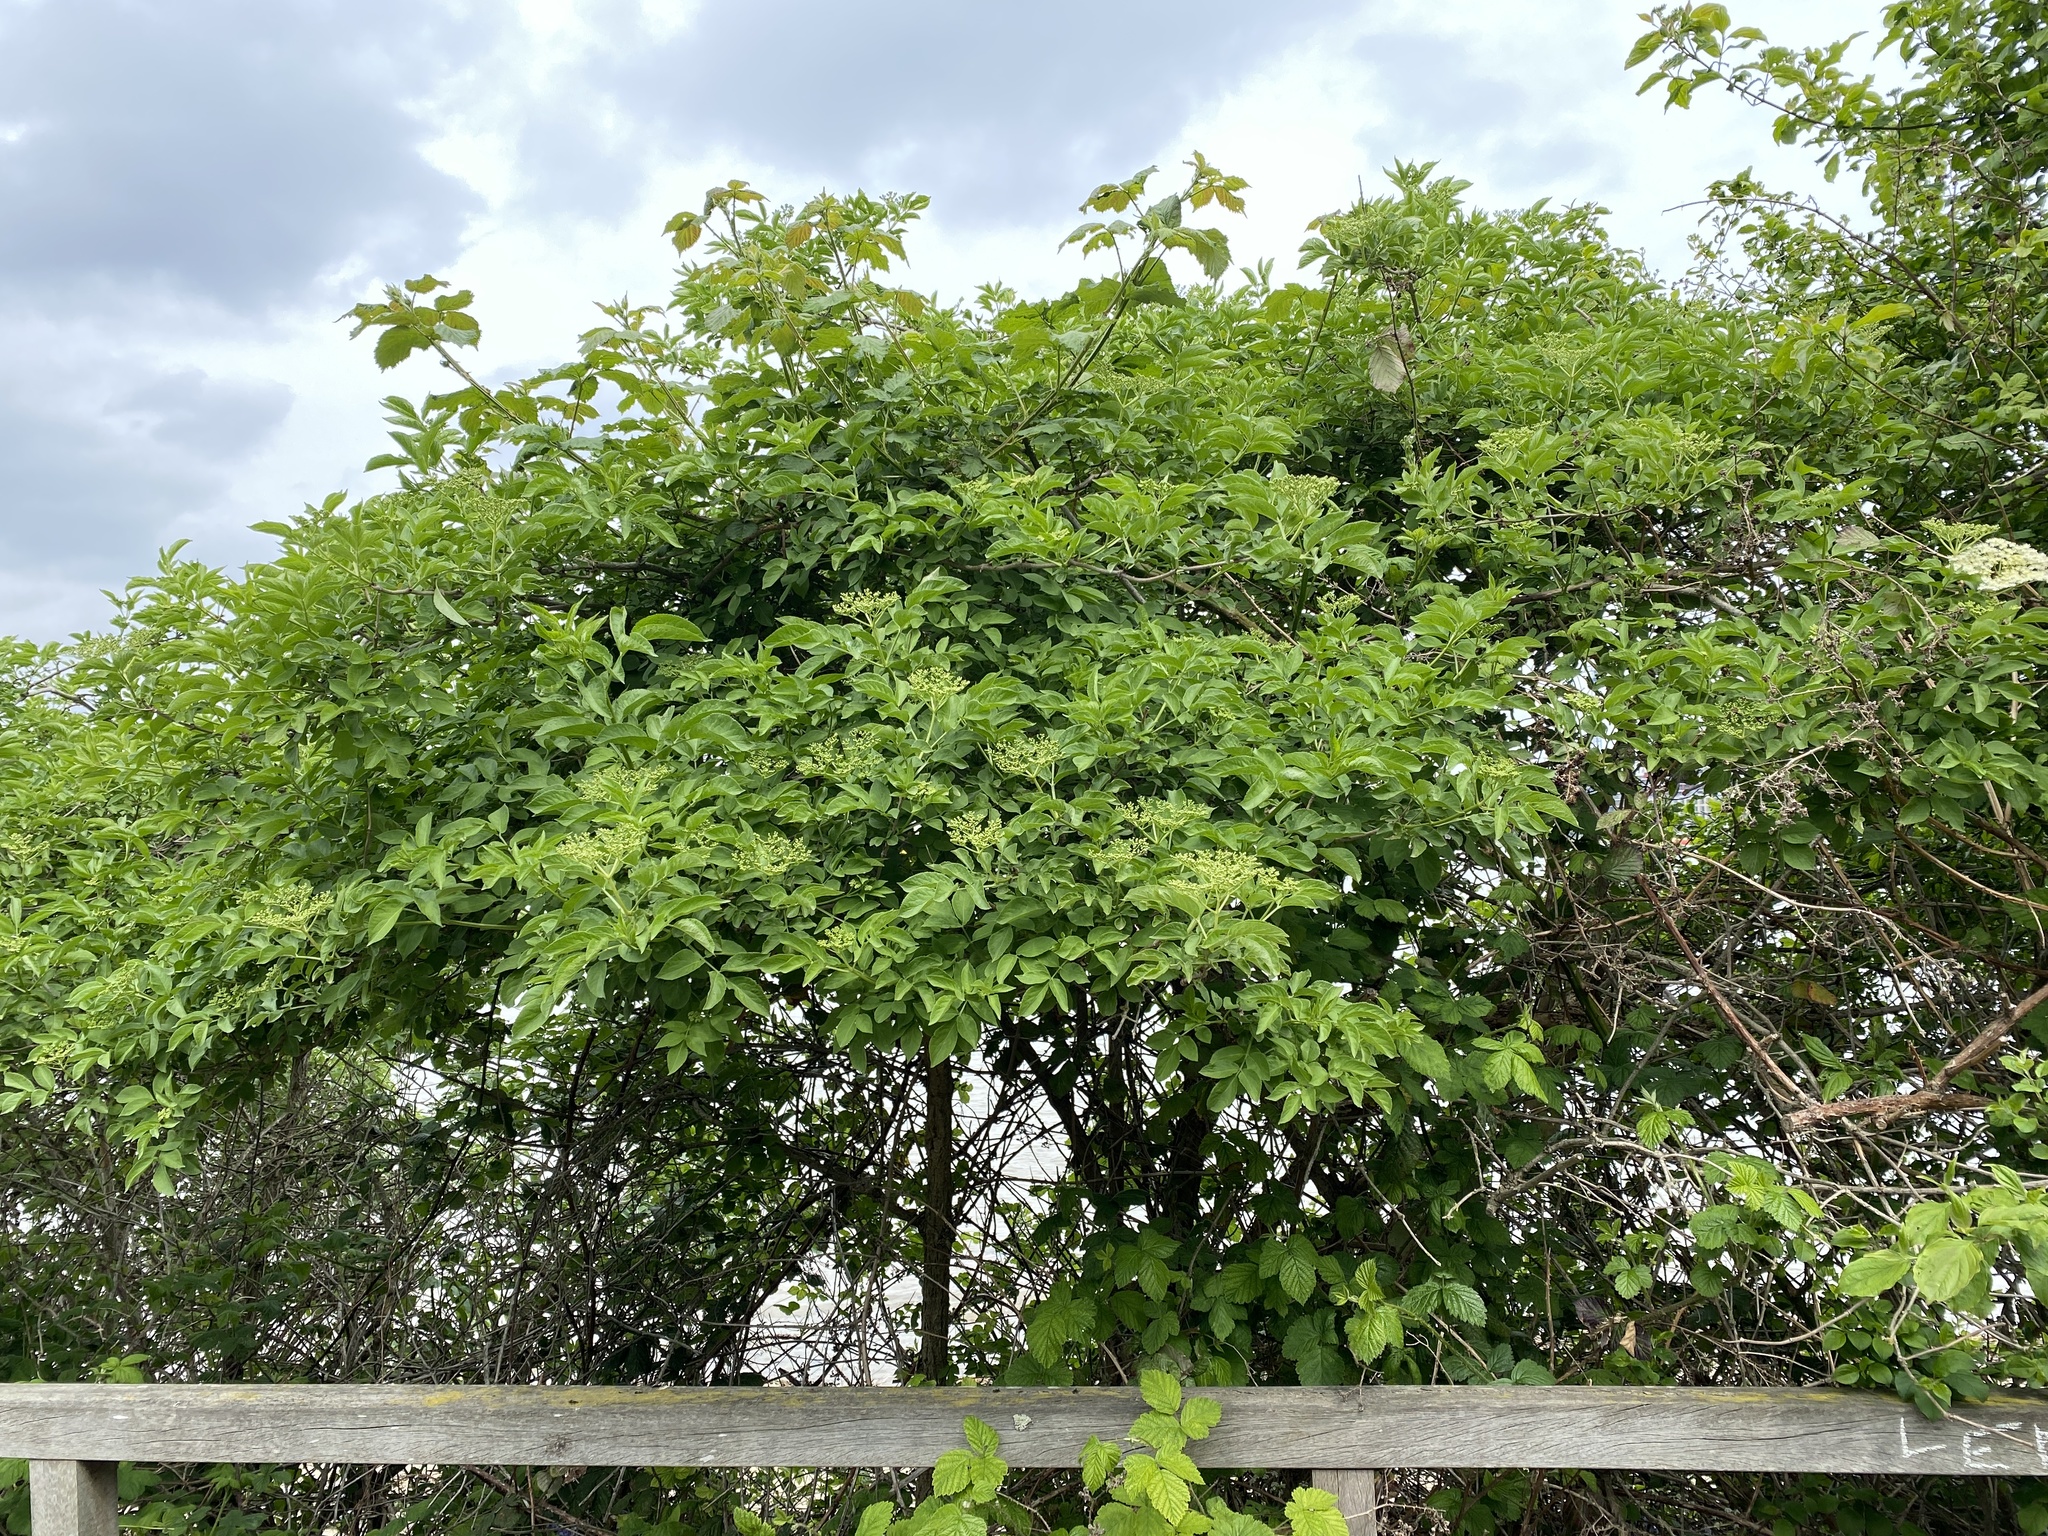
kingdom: Plantae
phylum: Tracheophyta
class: Magnoliopsida
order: Dipsacales
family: Viburnaceae
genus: Sambucus
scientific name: Sambucus nigra
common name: Elder
